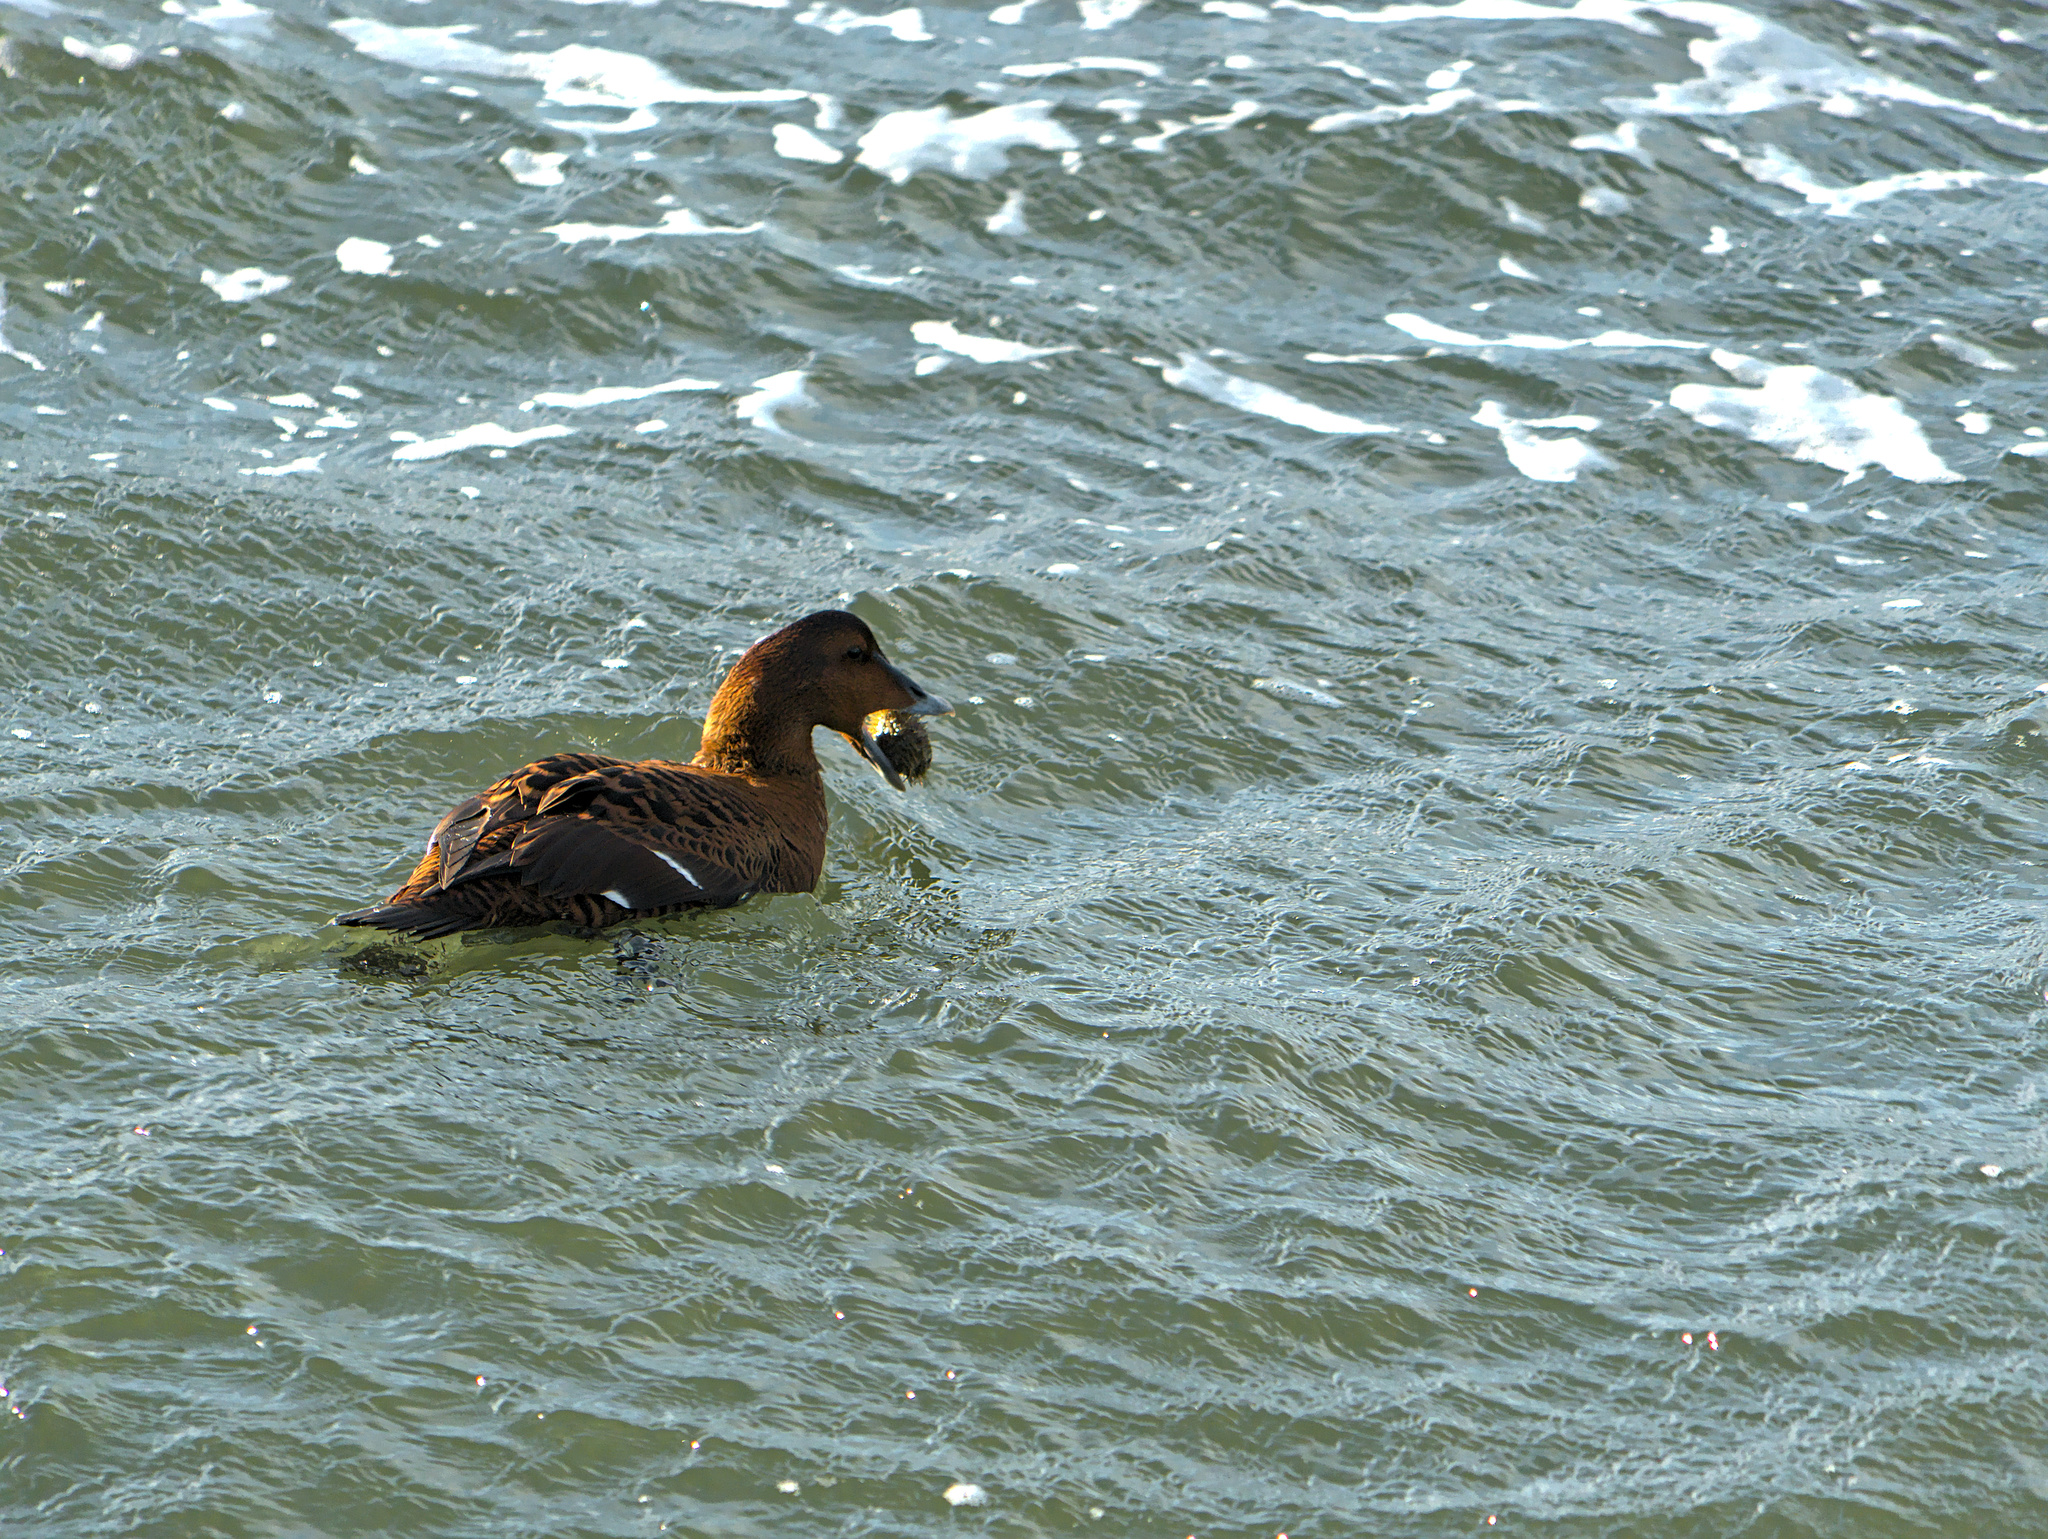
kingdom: Animalia
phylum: Chordata
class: Aves
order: Anseriformes
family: Anatidae
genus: Somateria
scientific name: Somateria mollissima
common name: Common eider
